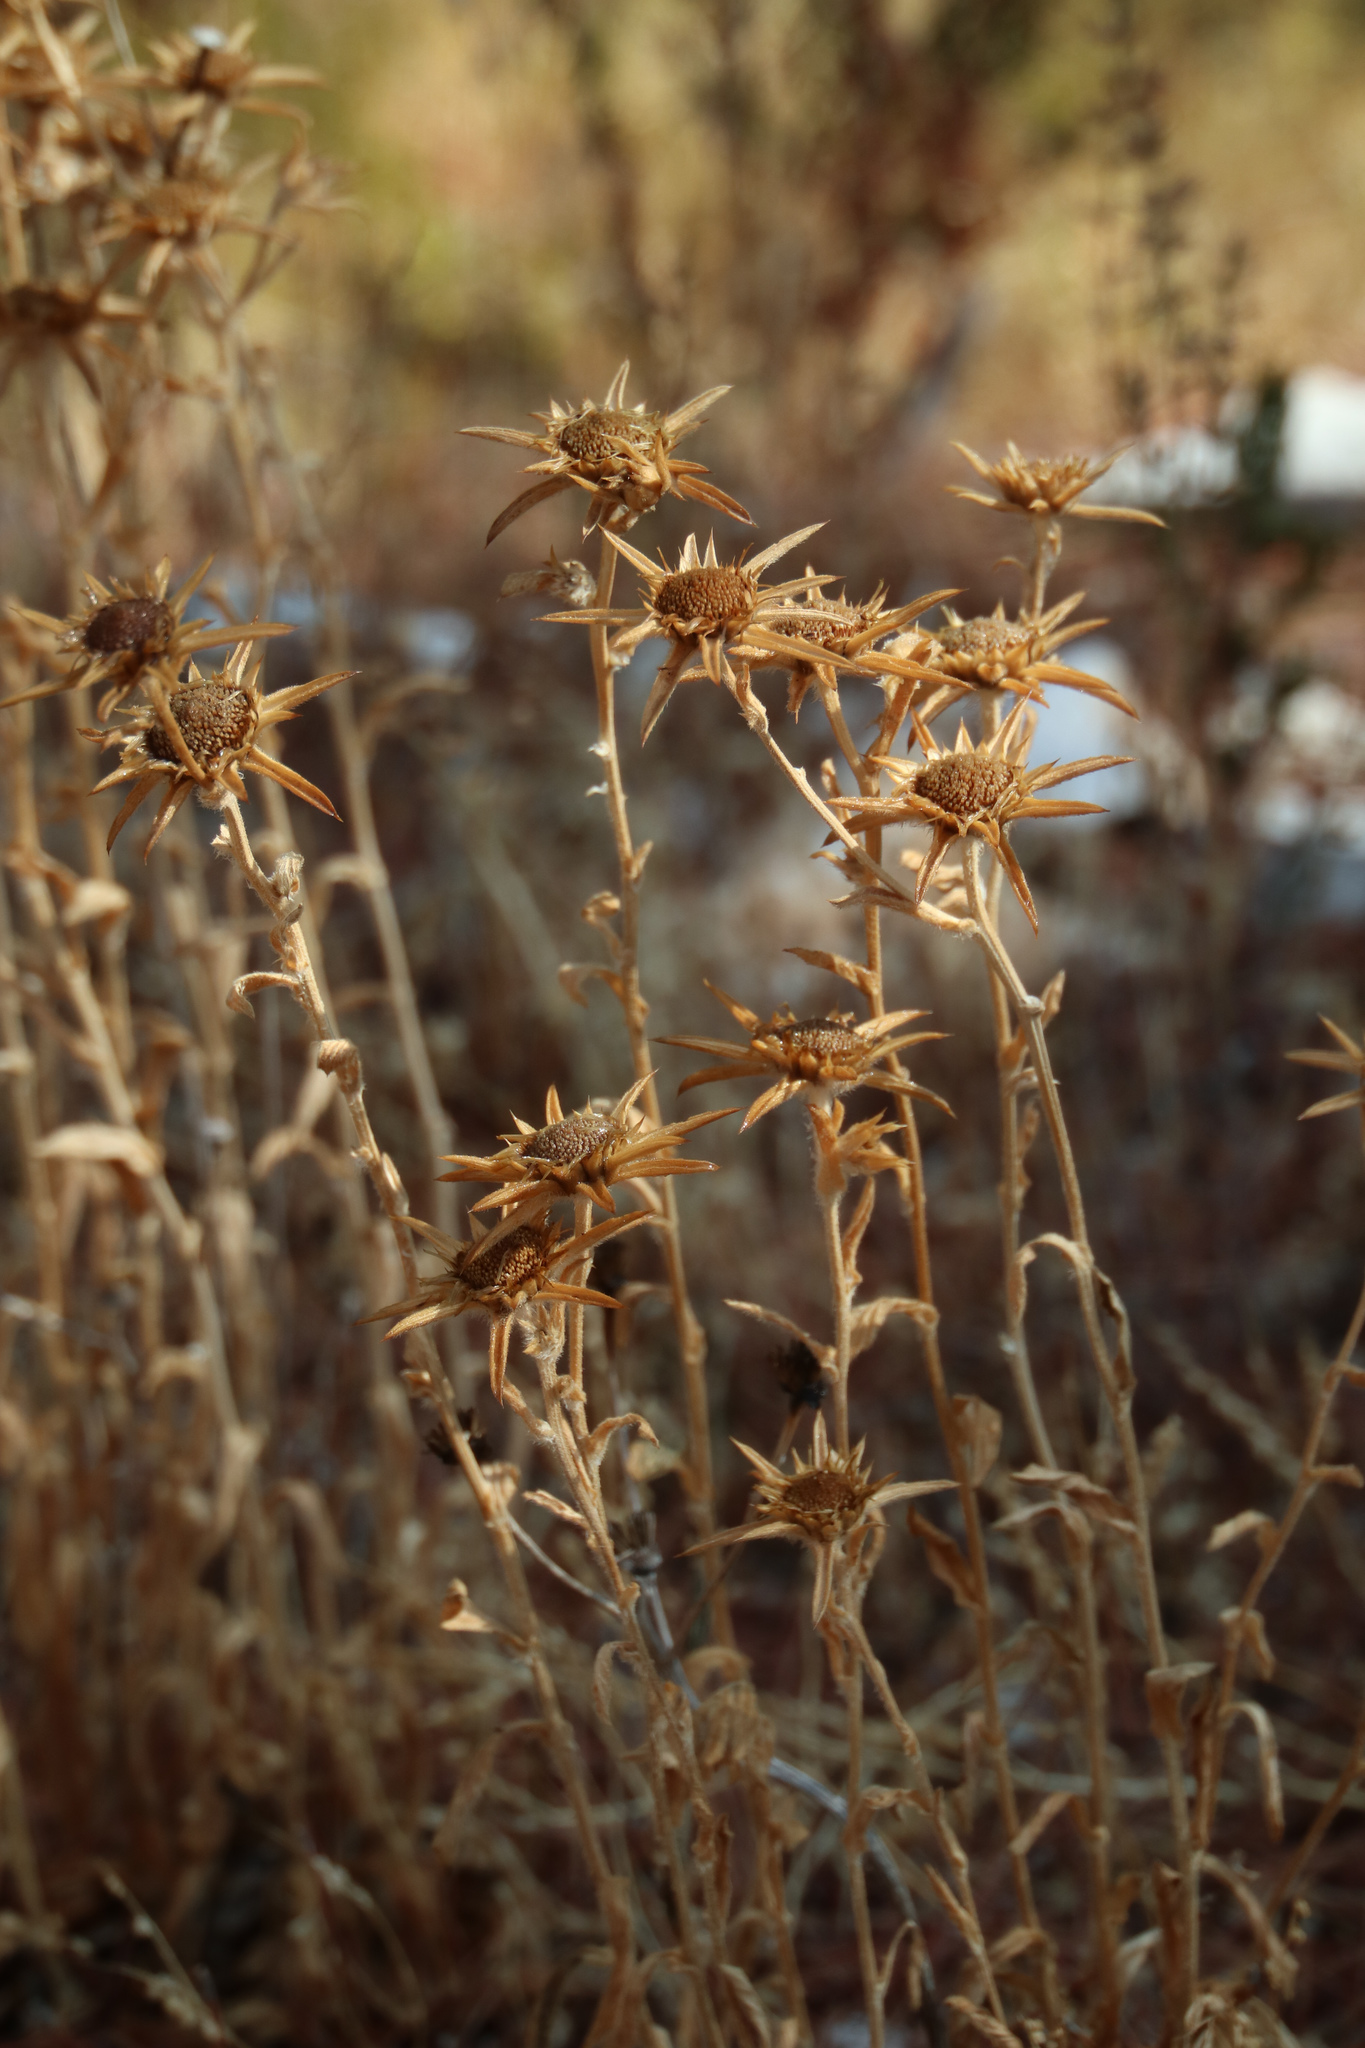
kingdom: Plantae
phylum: Tracheophyta
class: Magnoliopsida
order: Asterales
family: Asteraceae
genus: Pallenis
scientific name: Pallenis spinosa
